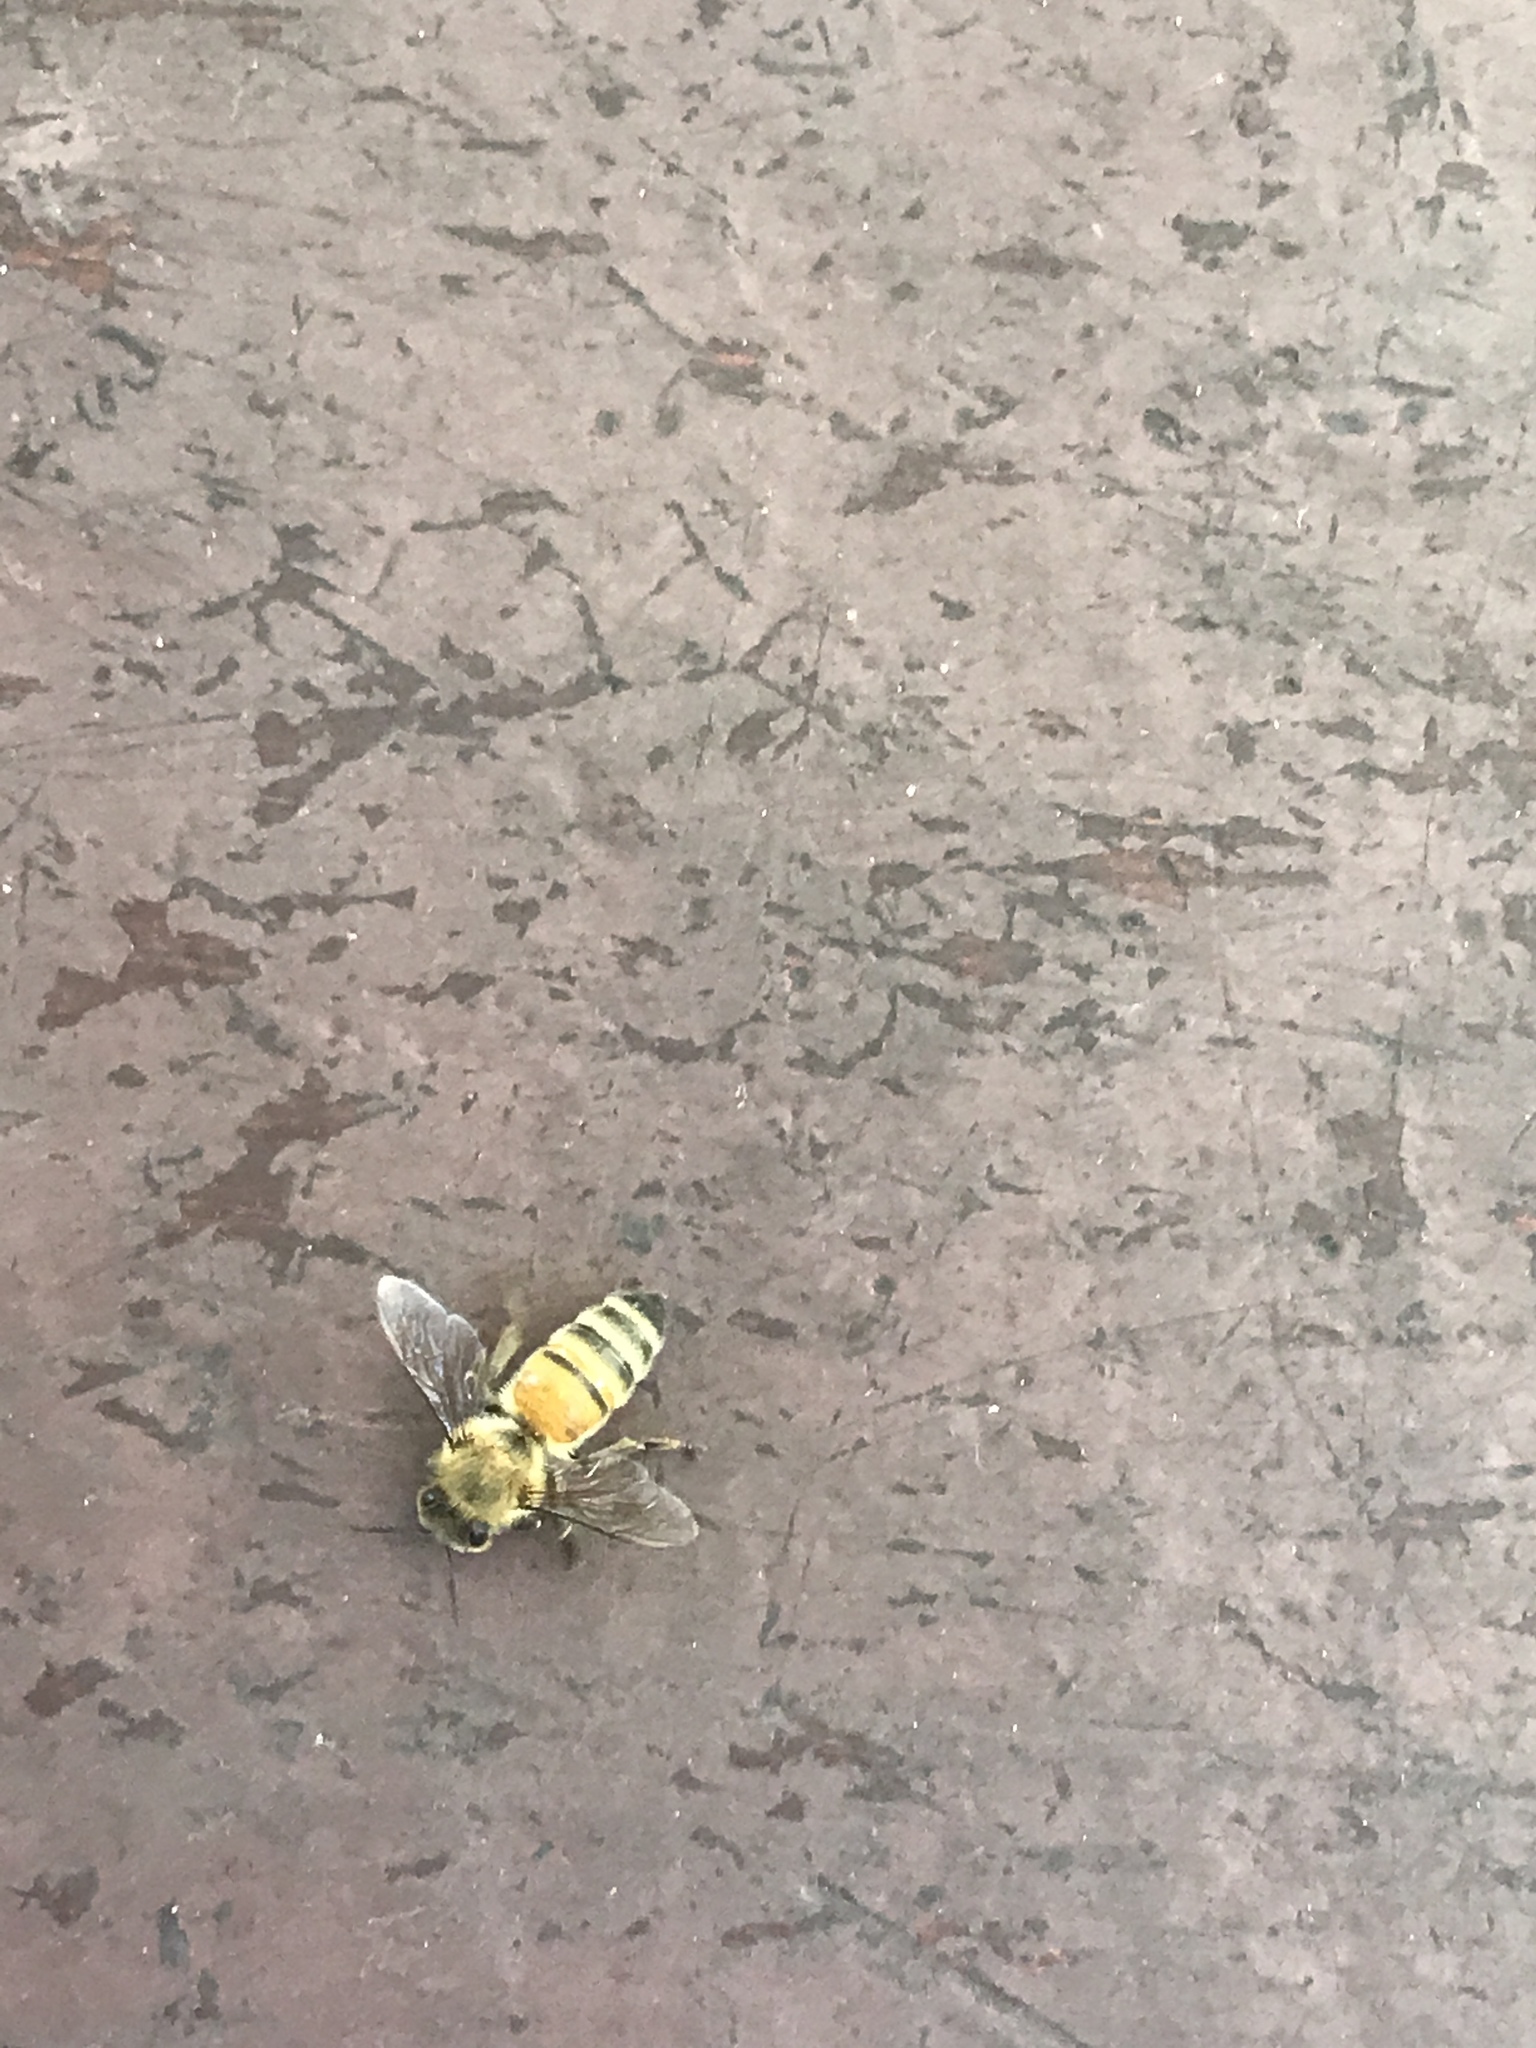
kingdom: Animalia
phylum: Arthropoda
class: Insecta
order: Hymenoptera
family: Apidae
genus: Apis
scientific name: Apis mellifera
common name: Honey bee
